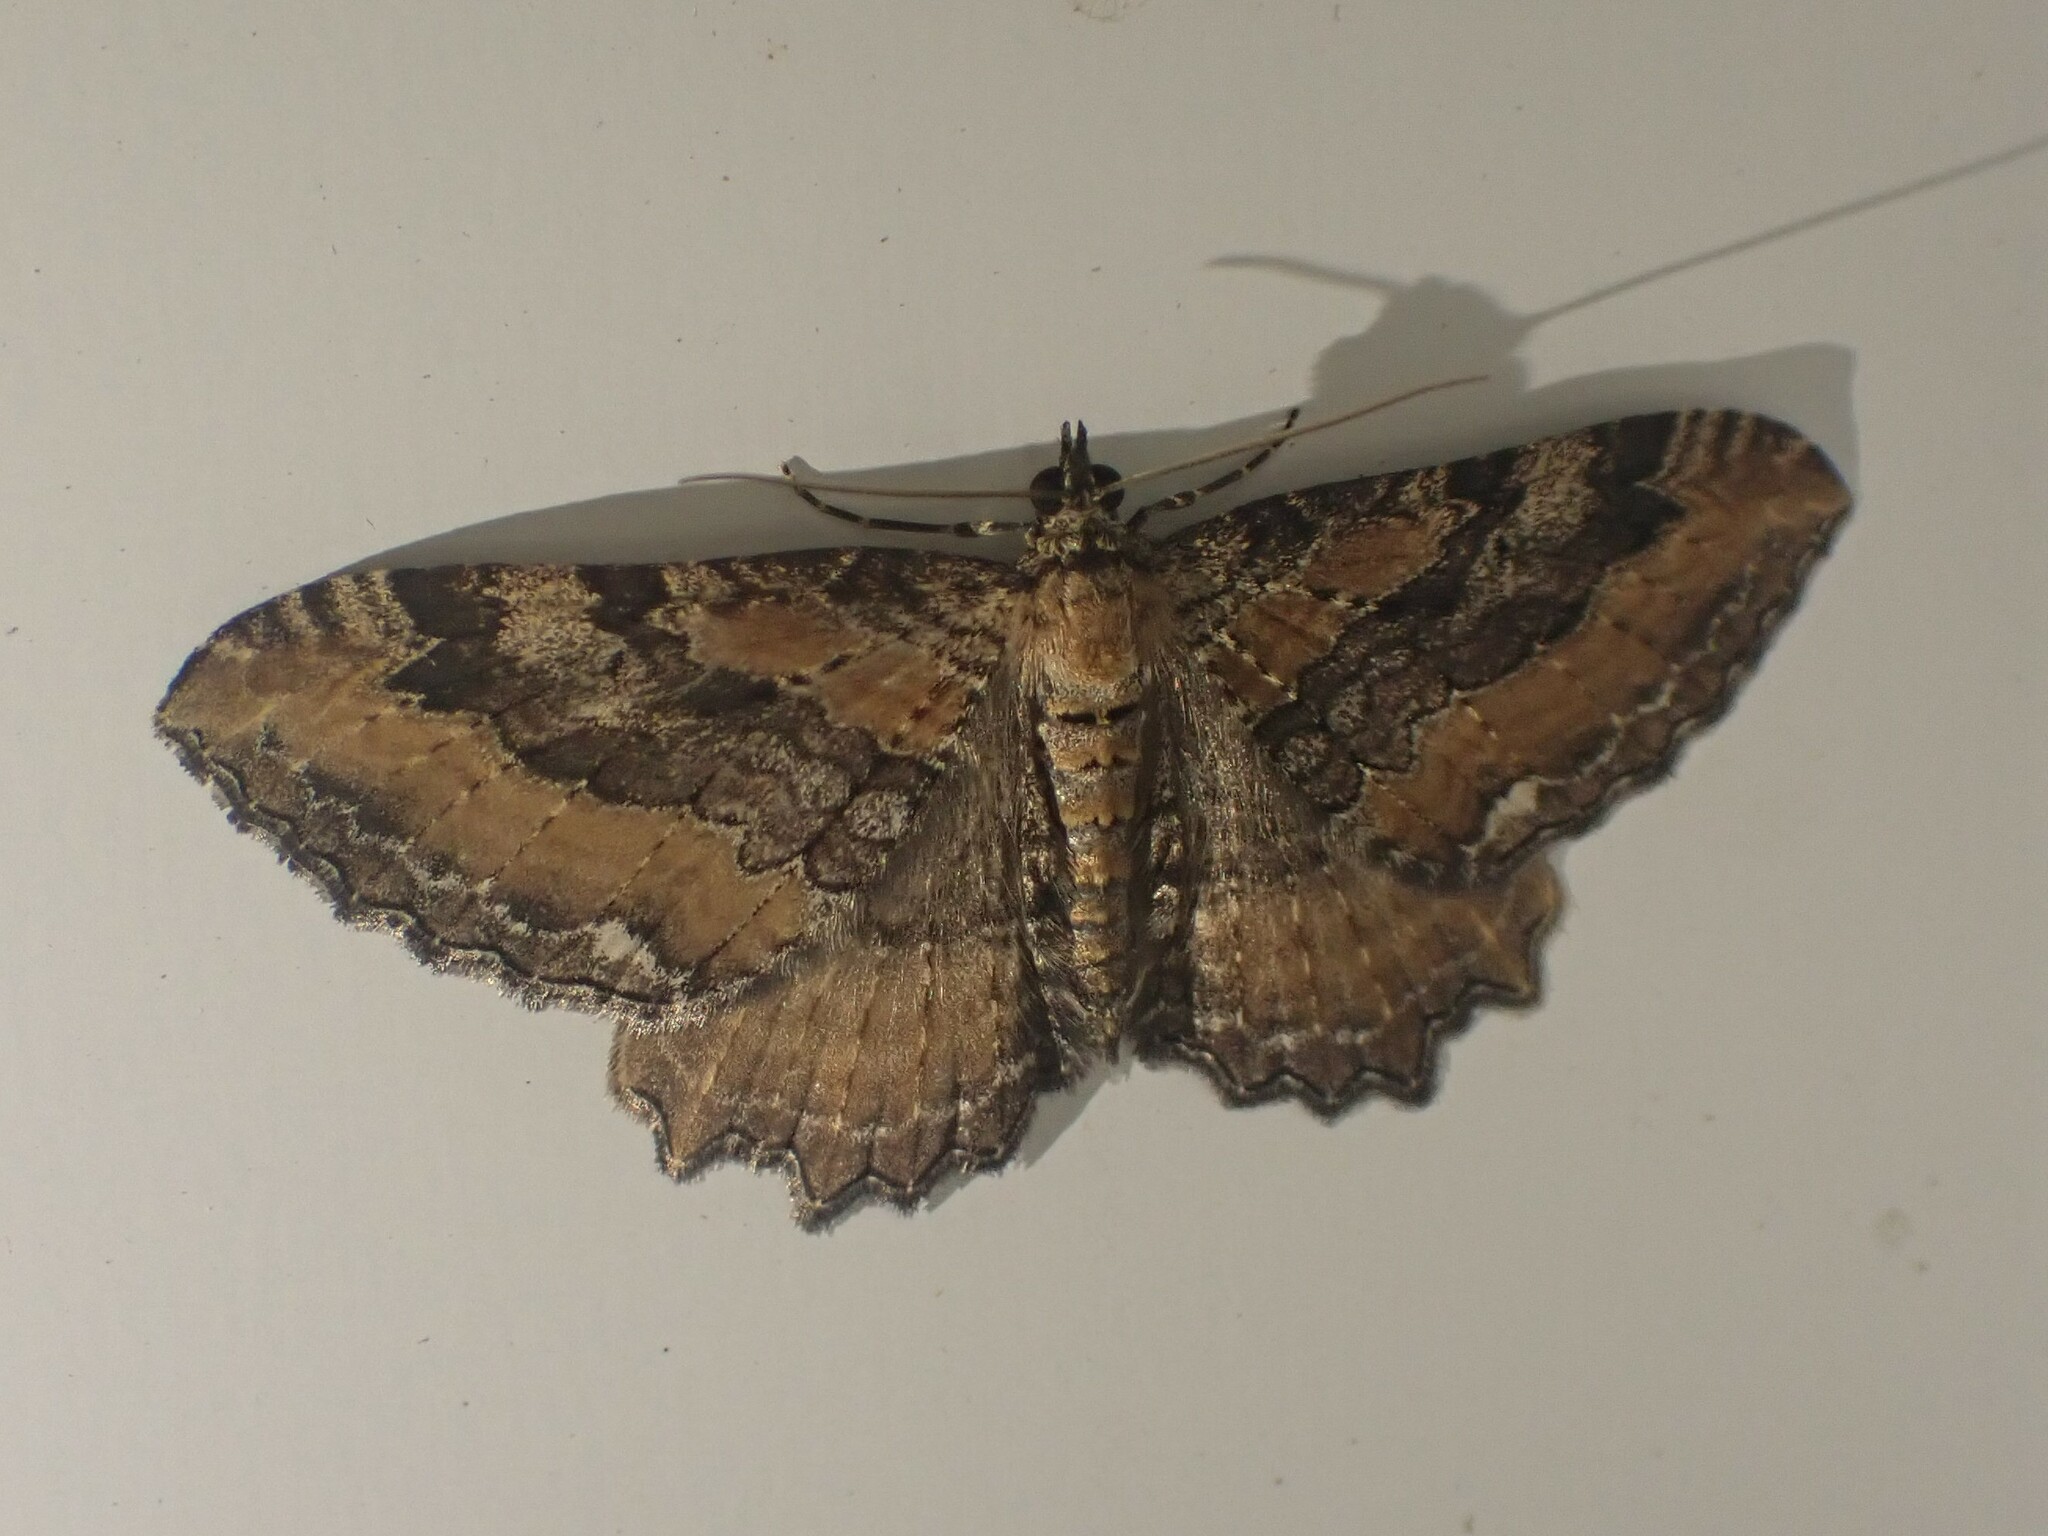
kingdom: Animalia
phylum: Arthropoda
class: Insecta
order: Lepidoptera
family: Geometridae
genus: Rheumaptera
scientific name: Rheumaptera
